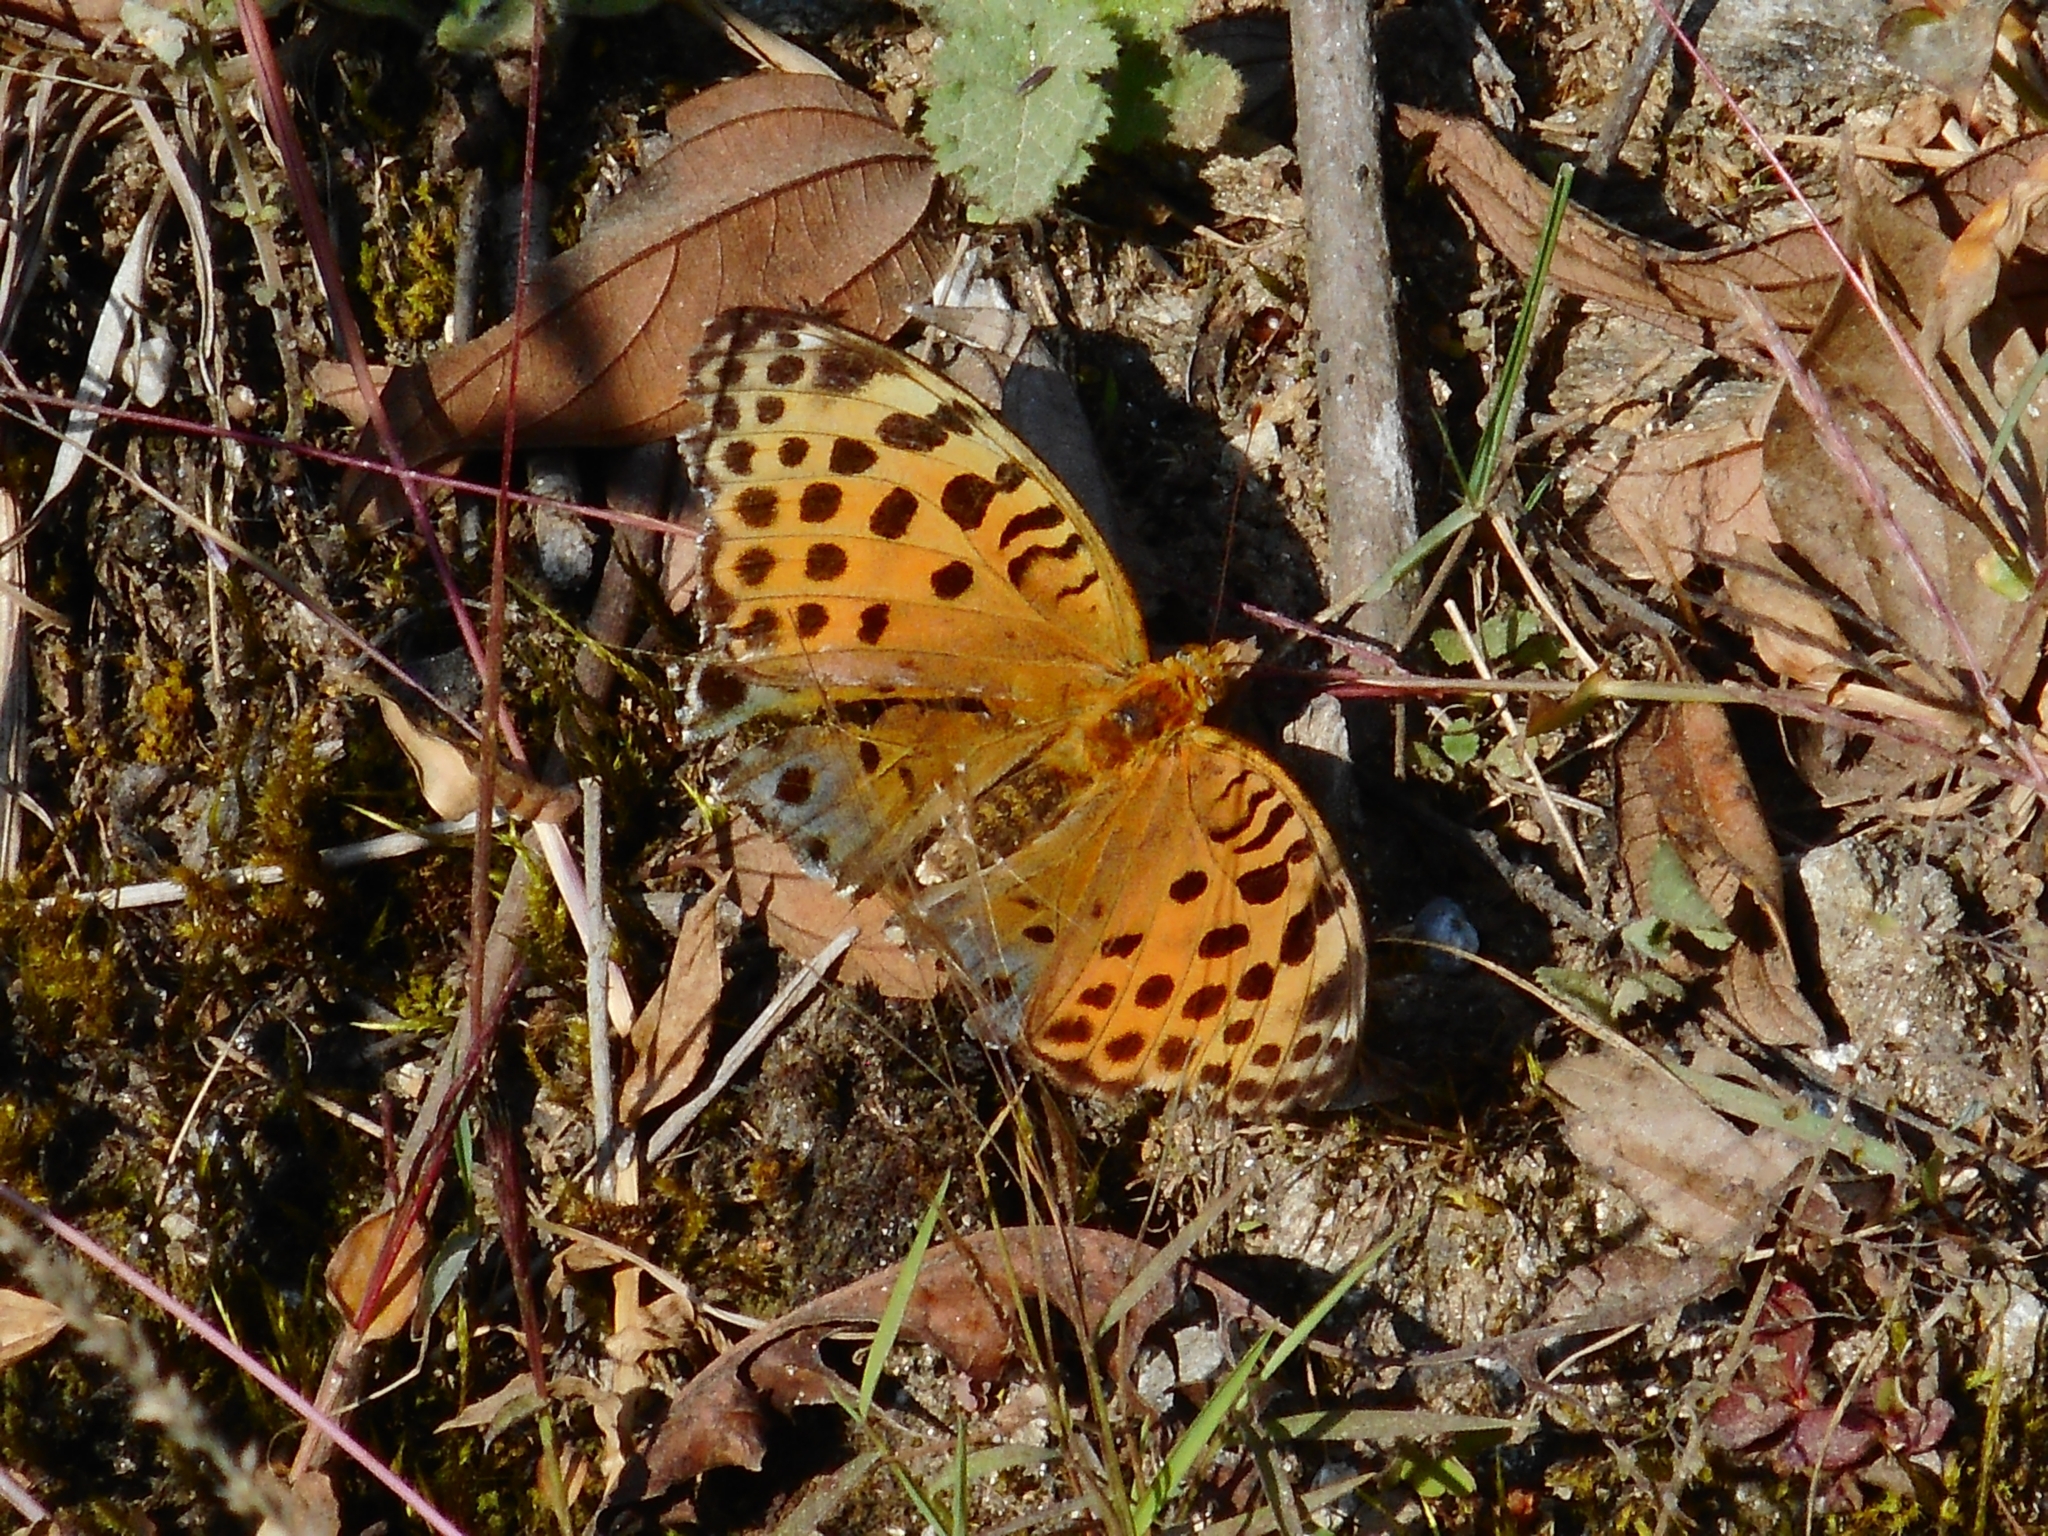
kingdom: Animalia
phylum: Arthropoda
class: Insecta
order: Lepidoptera
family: Nymphalidae
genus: Childrena
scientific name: Childrena childreni
